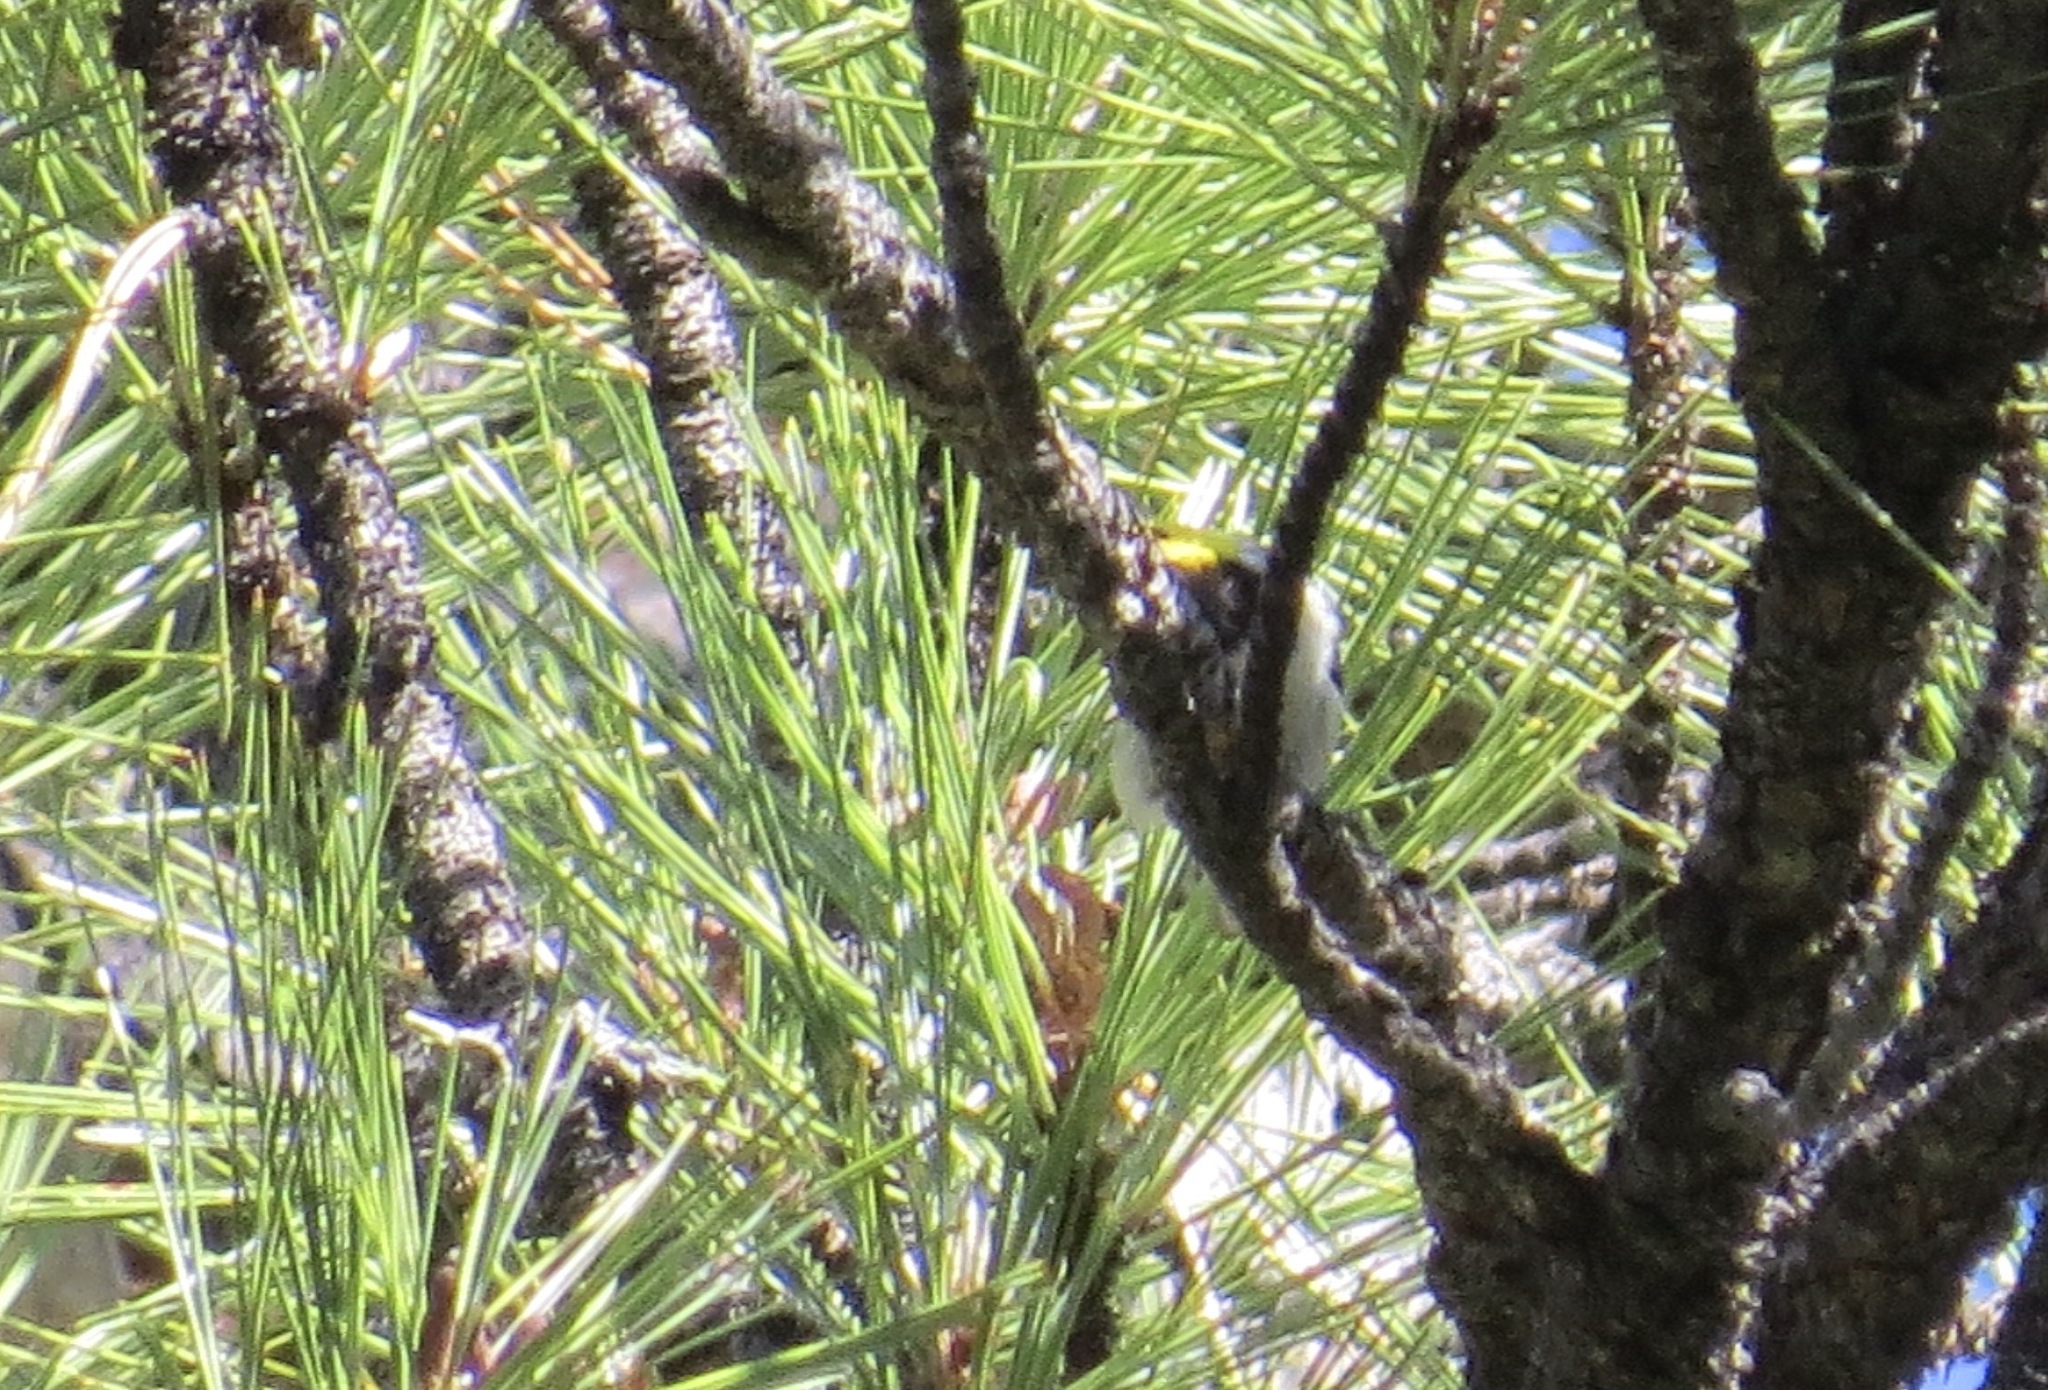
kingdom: Animalia
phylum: Chordata
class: Aves
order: Passeriformes
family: Parulidae
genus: Setophaga
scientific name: Setophaga occidentalis
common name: Hermit warbler
